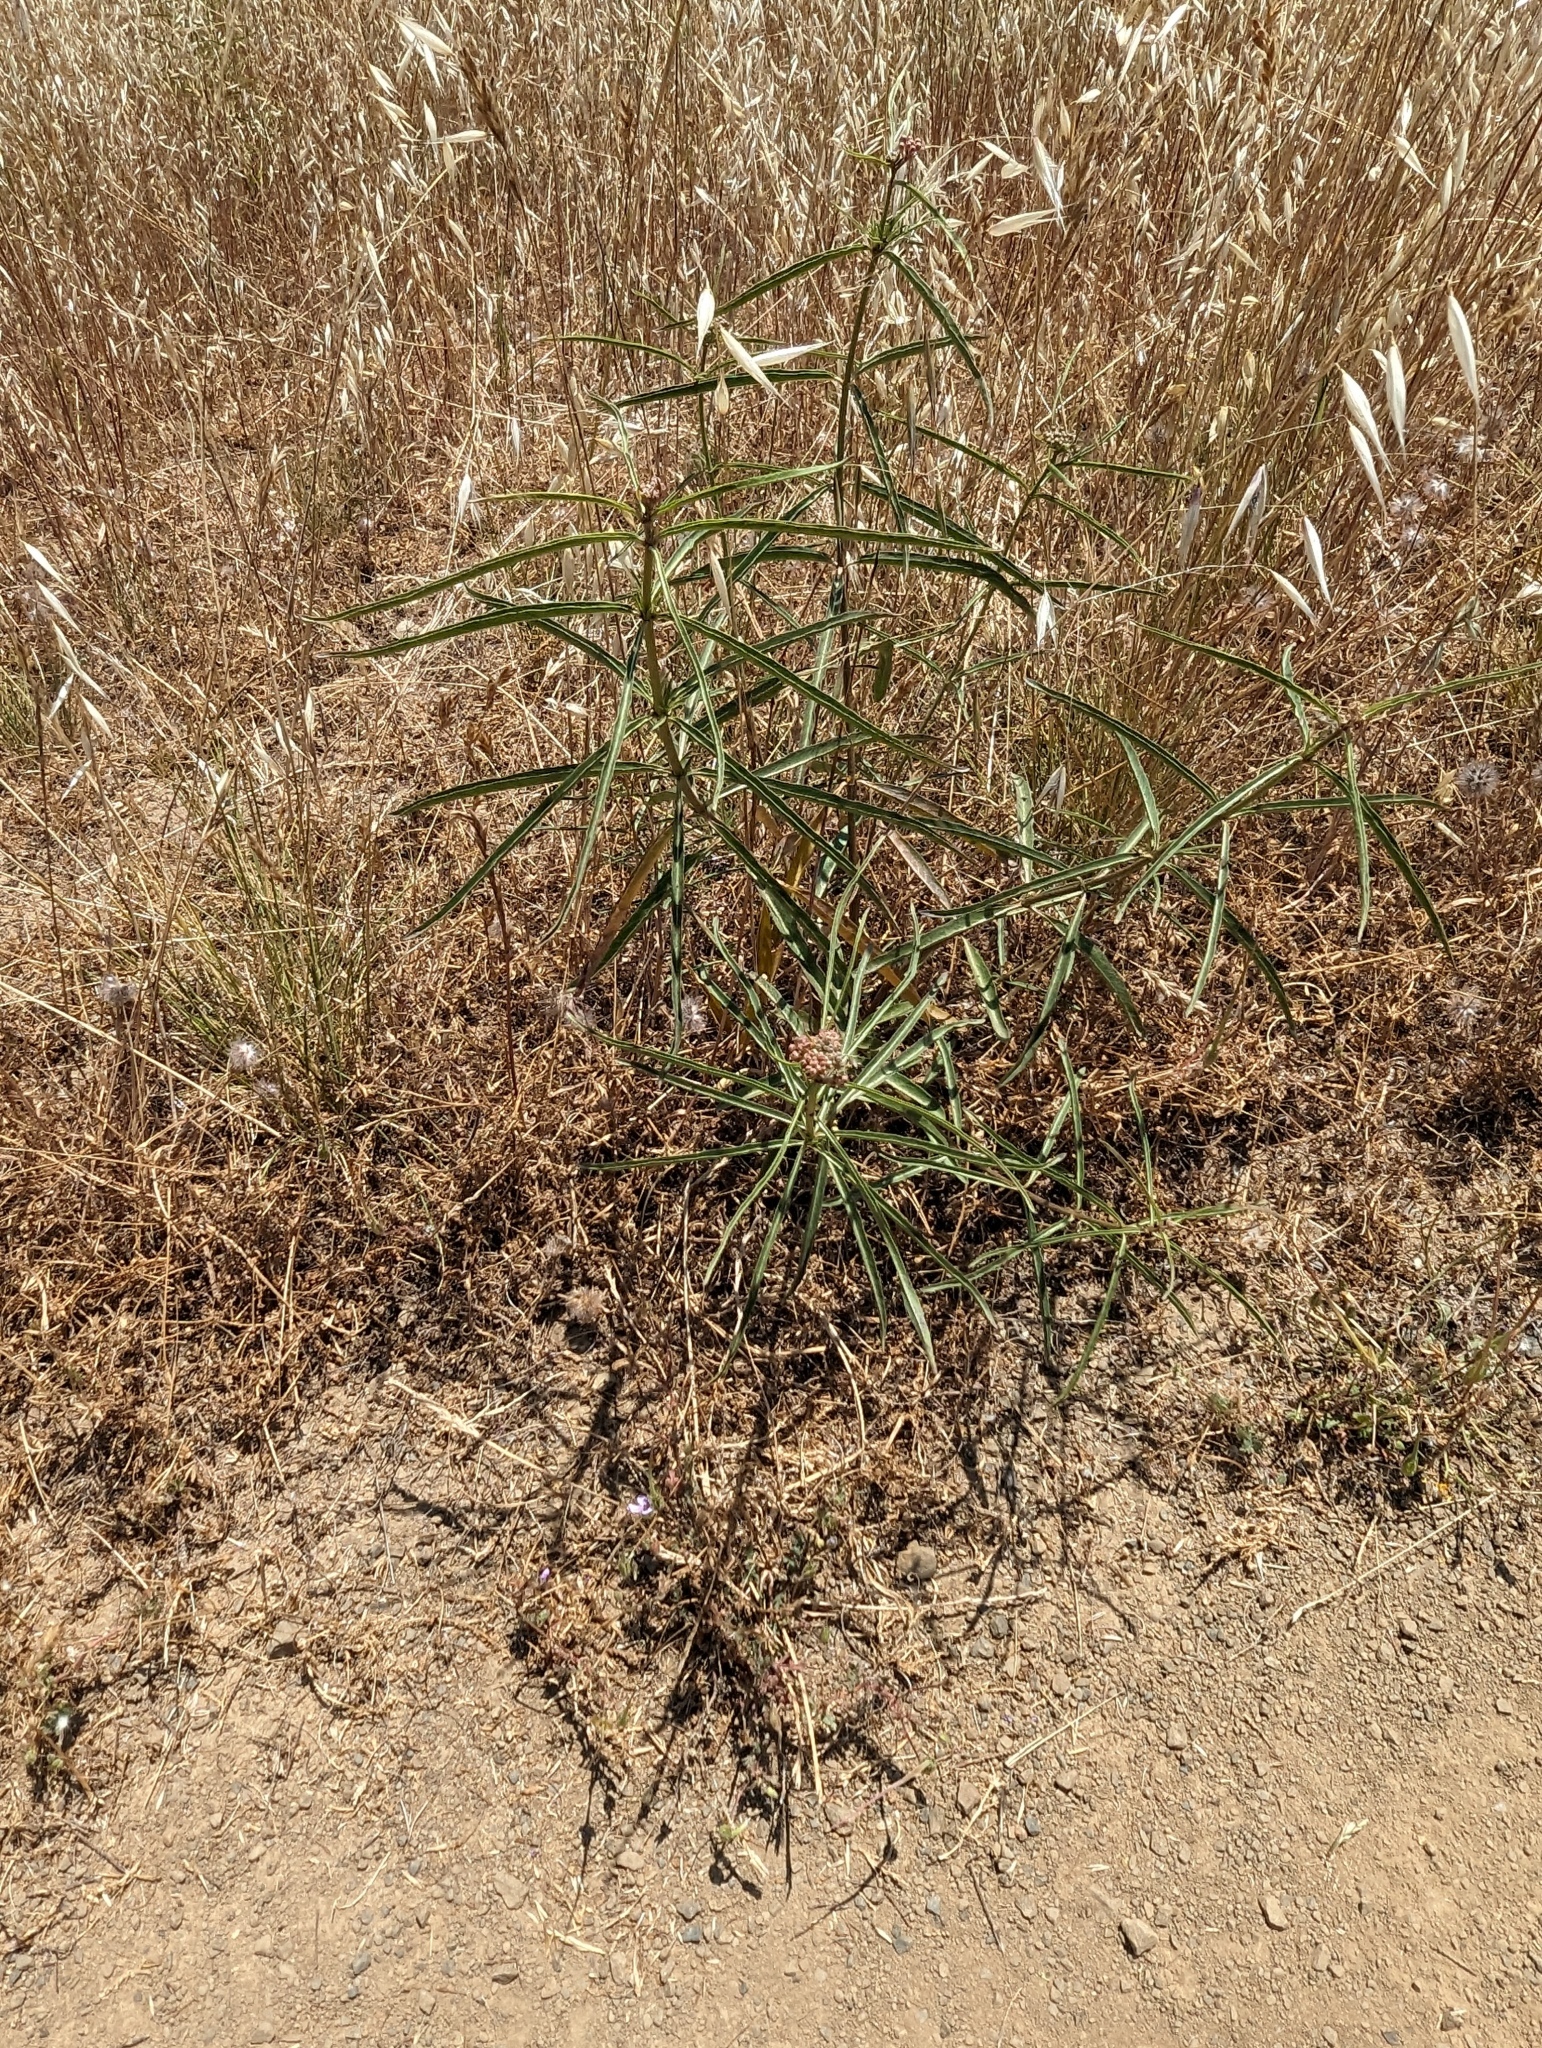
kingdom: Plantae
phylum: Tracheophyta
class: Magnoliopsida
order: Gentianales
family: Apocynaceae
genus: Asclepias
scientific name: Asclepias fascicularis
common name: Mexican milkweed
